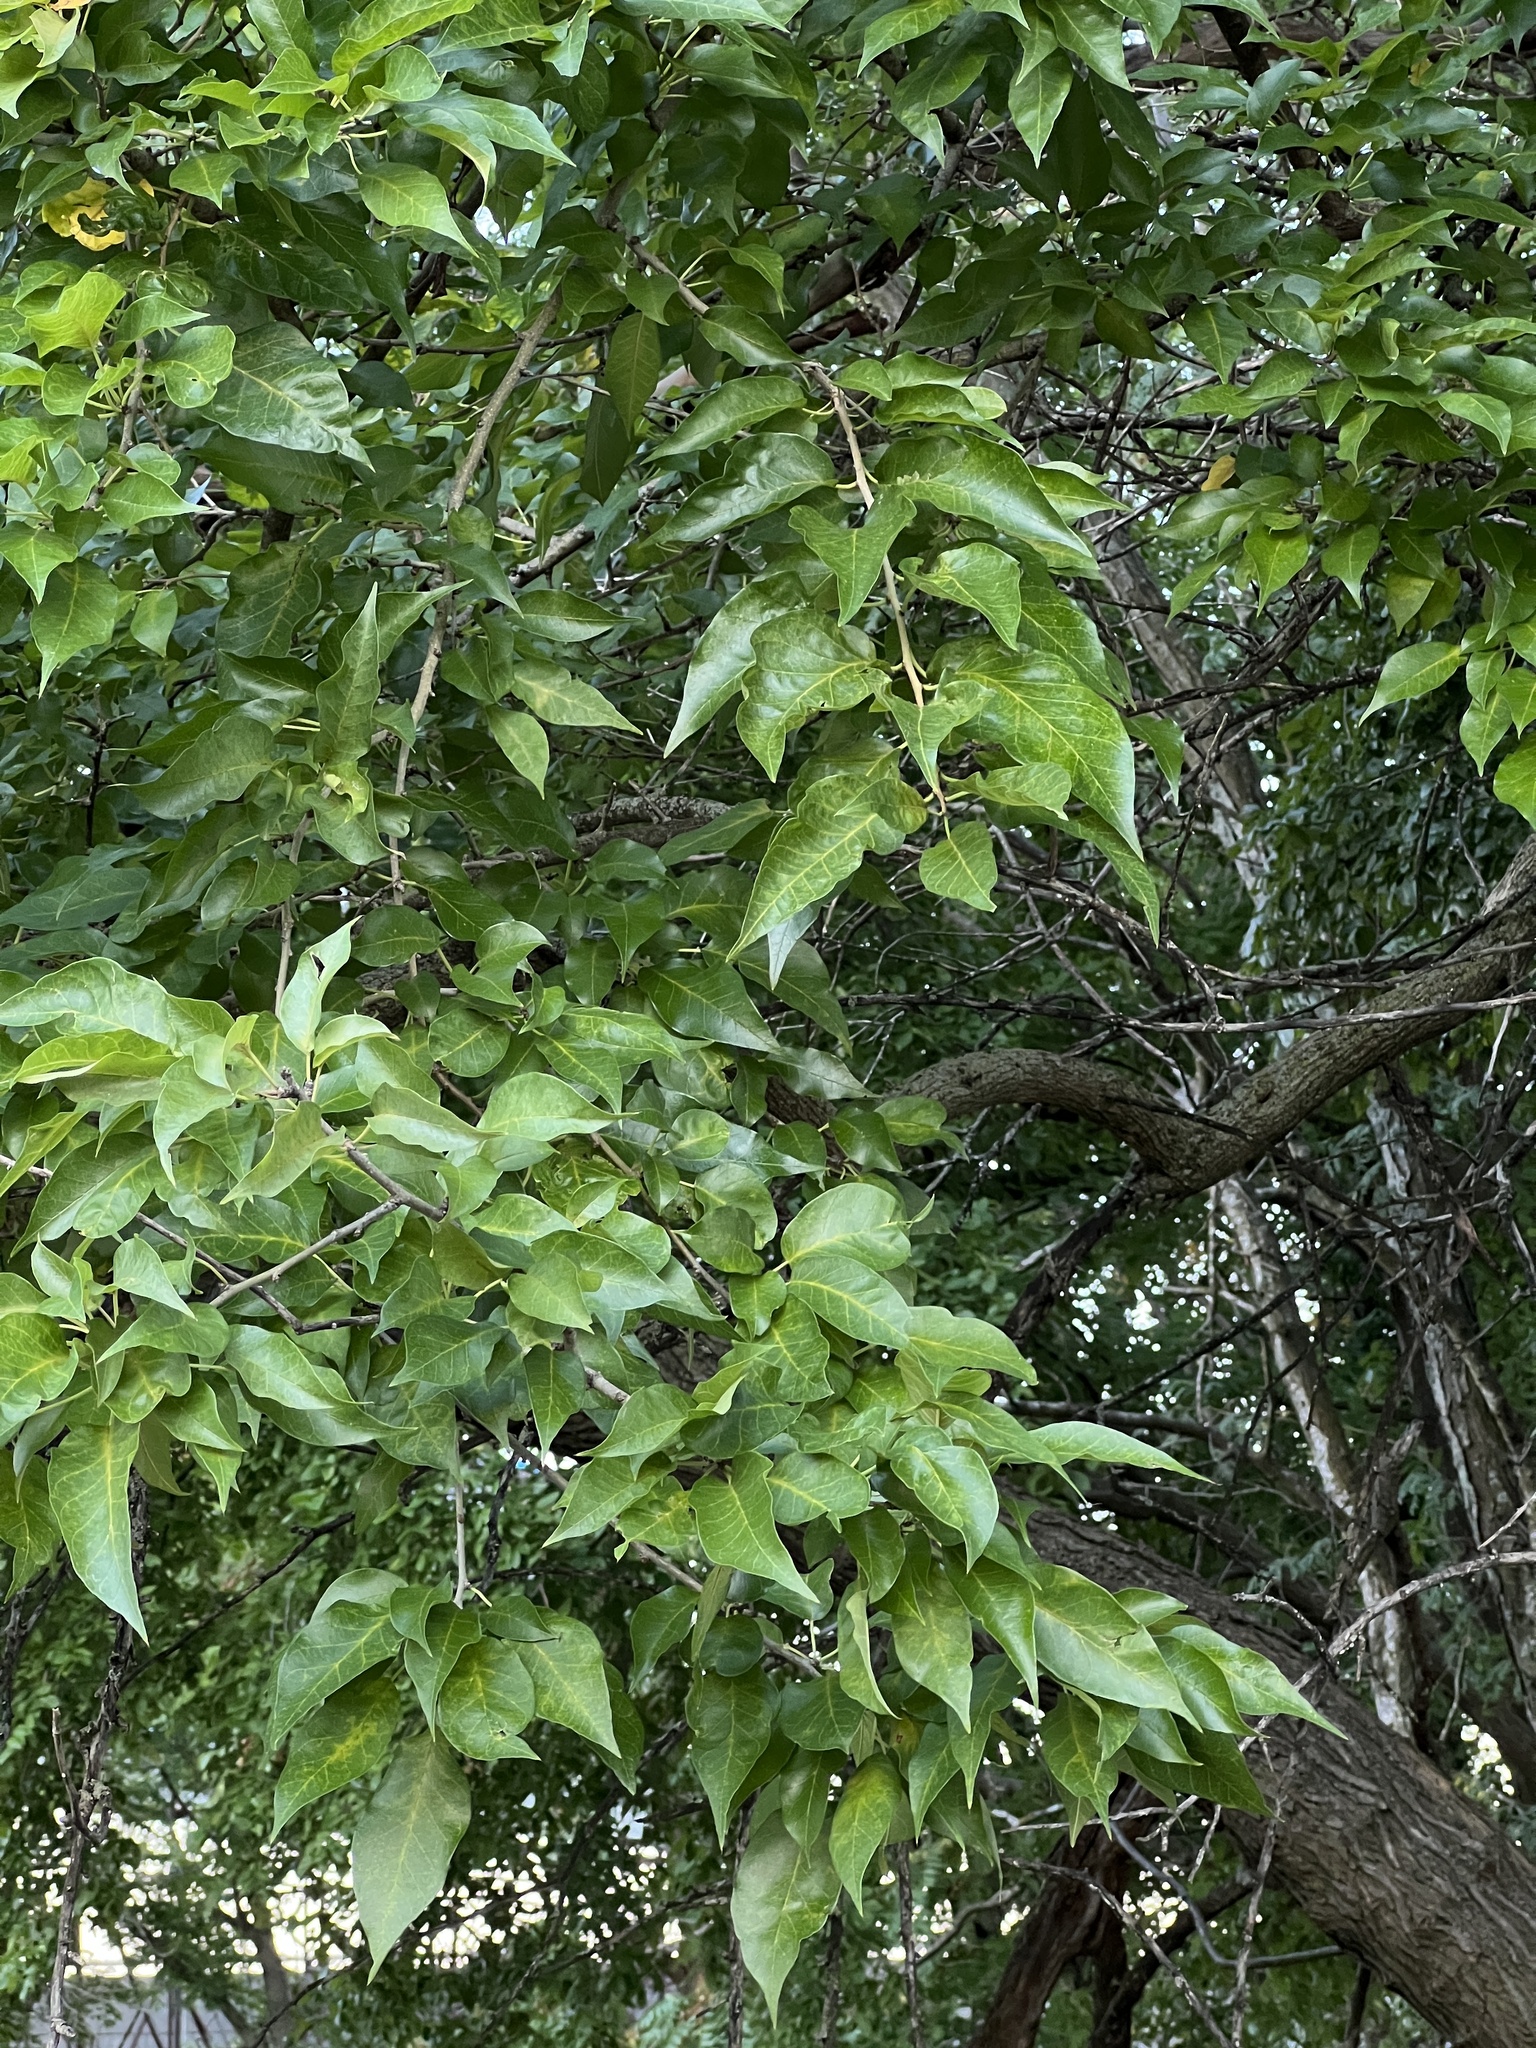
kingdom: Plantae
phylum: Tracheophyta
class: Magnoliopsida
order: Rosales
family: Moraceae
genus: Maclura
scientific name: Maclura pomifera
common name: Osage-orange
